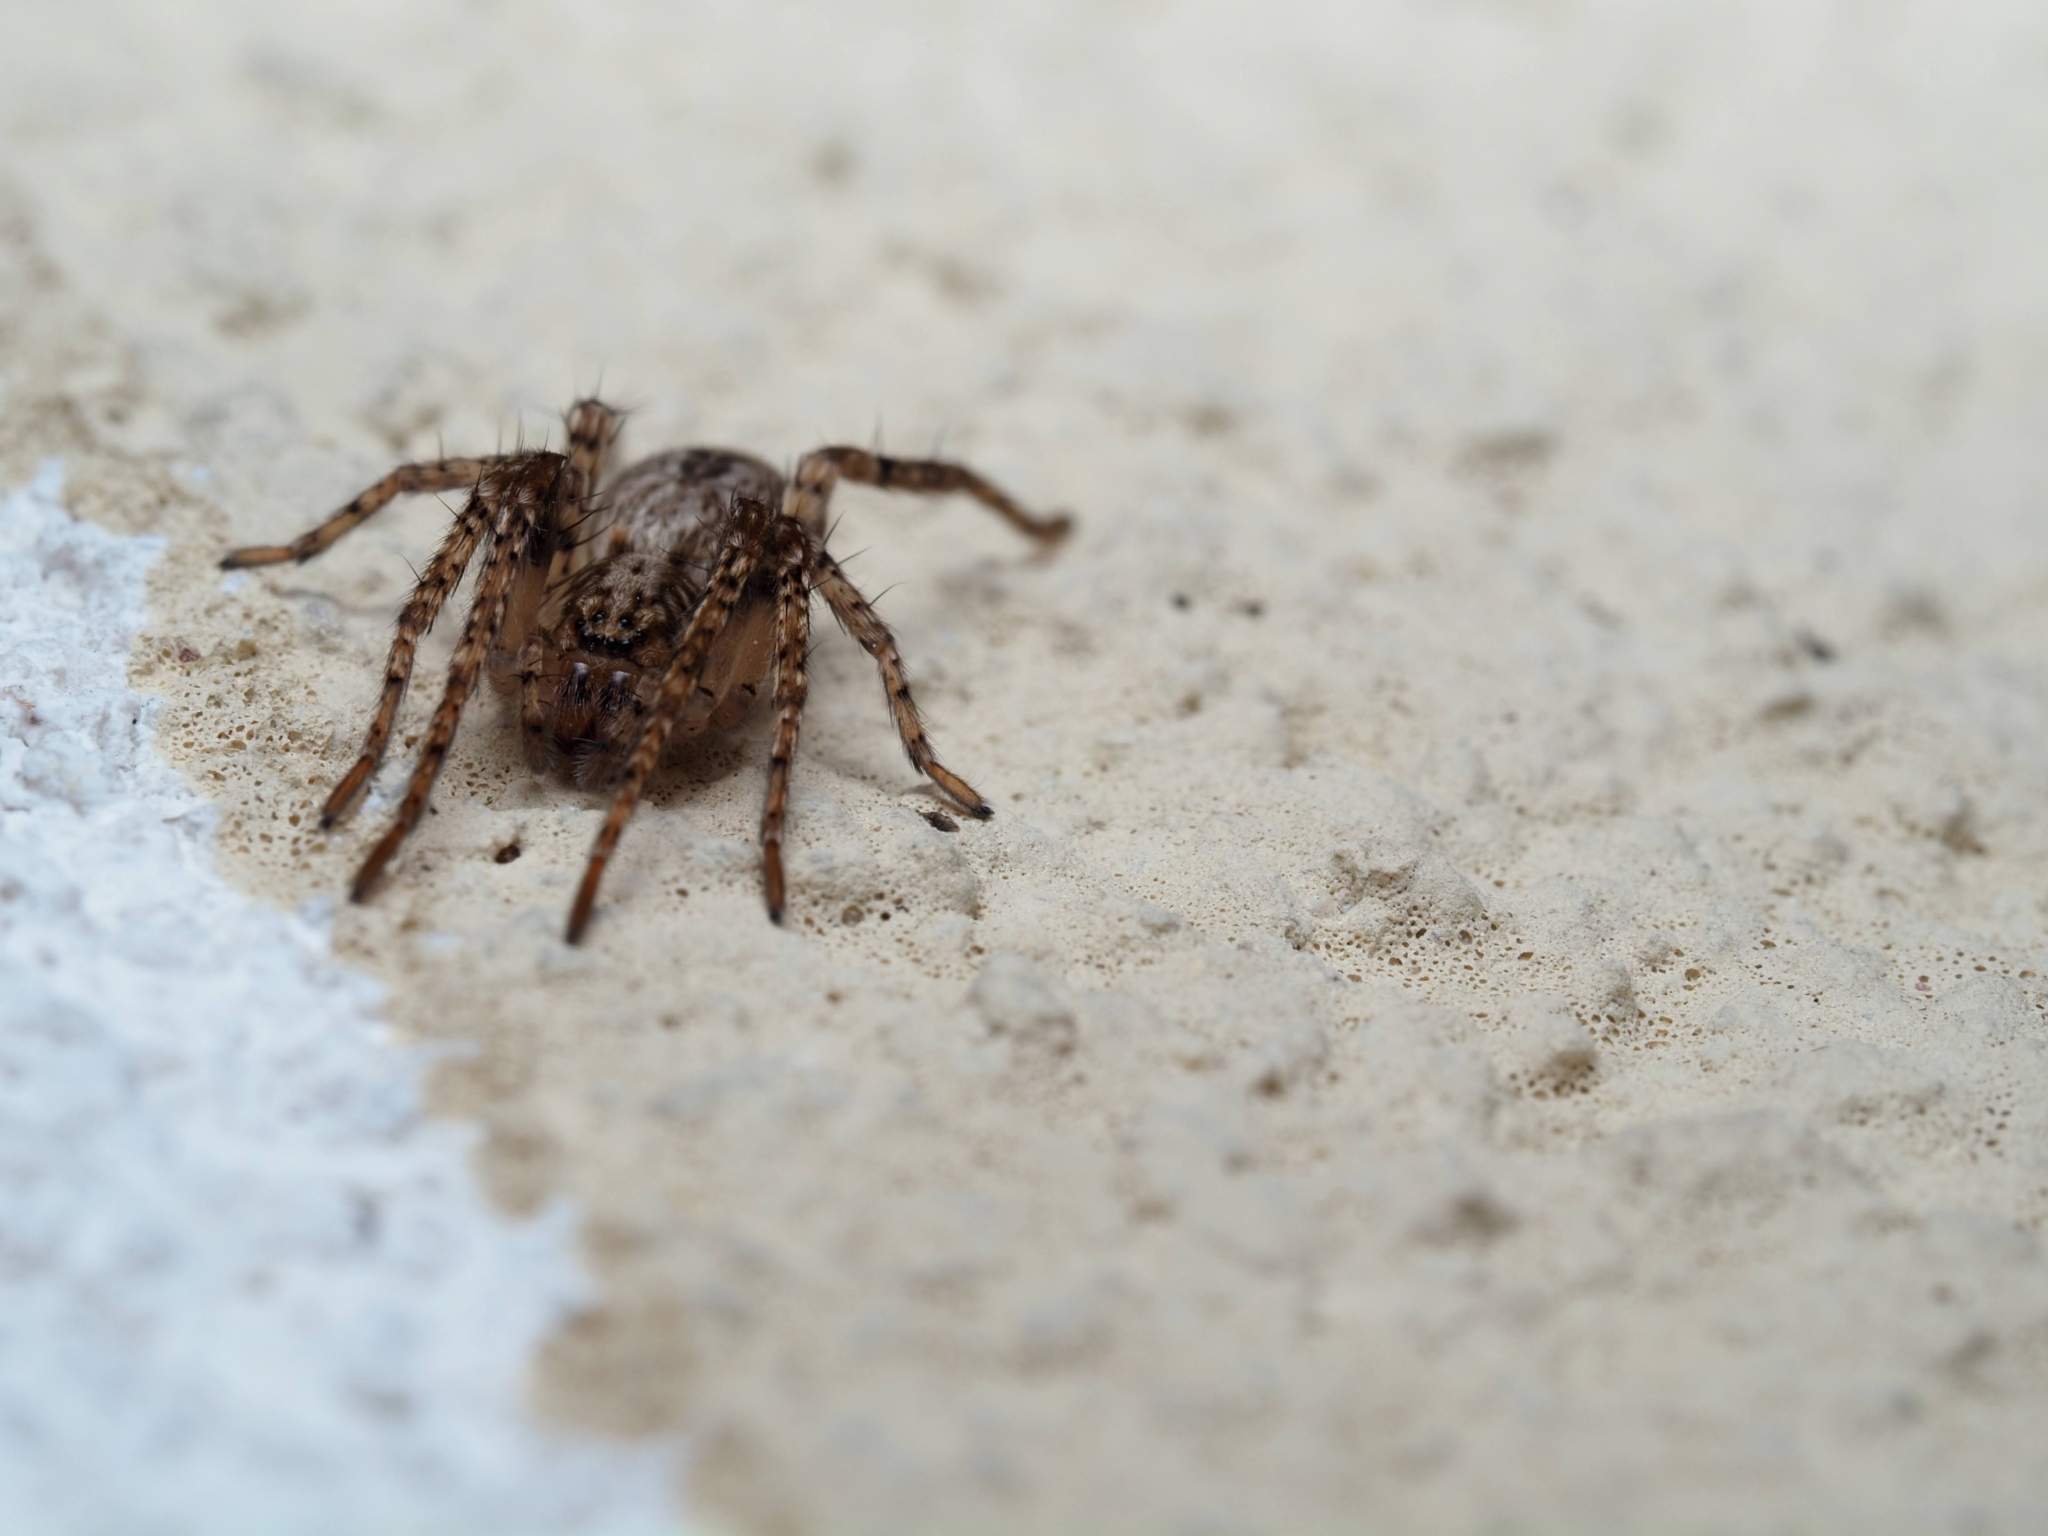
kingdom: Animalia
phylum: Arthropoda
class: Arachnida
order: Araneae
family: Anyphaenidae
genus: Anyphaena
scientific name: Anyphaena accentuata
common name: Buzzing spider
